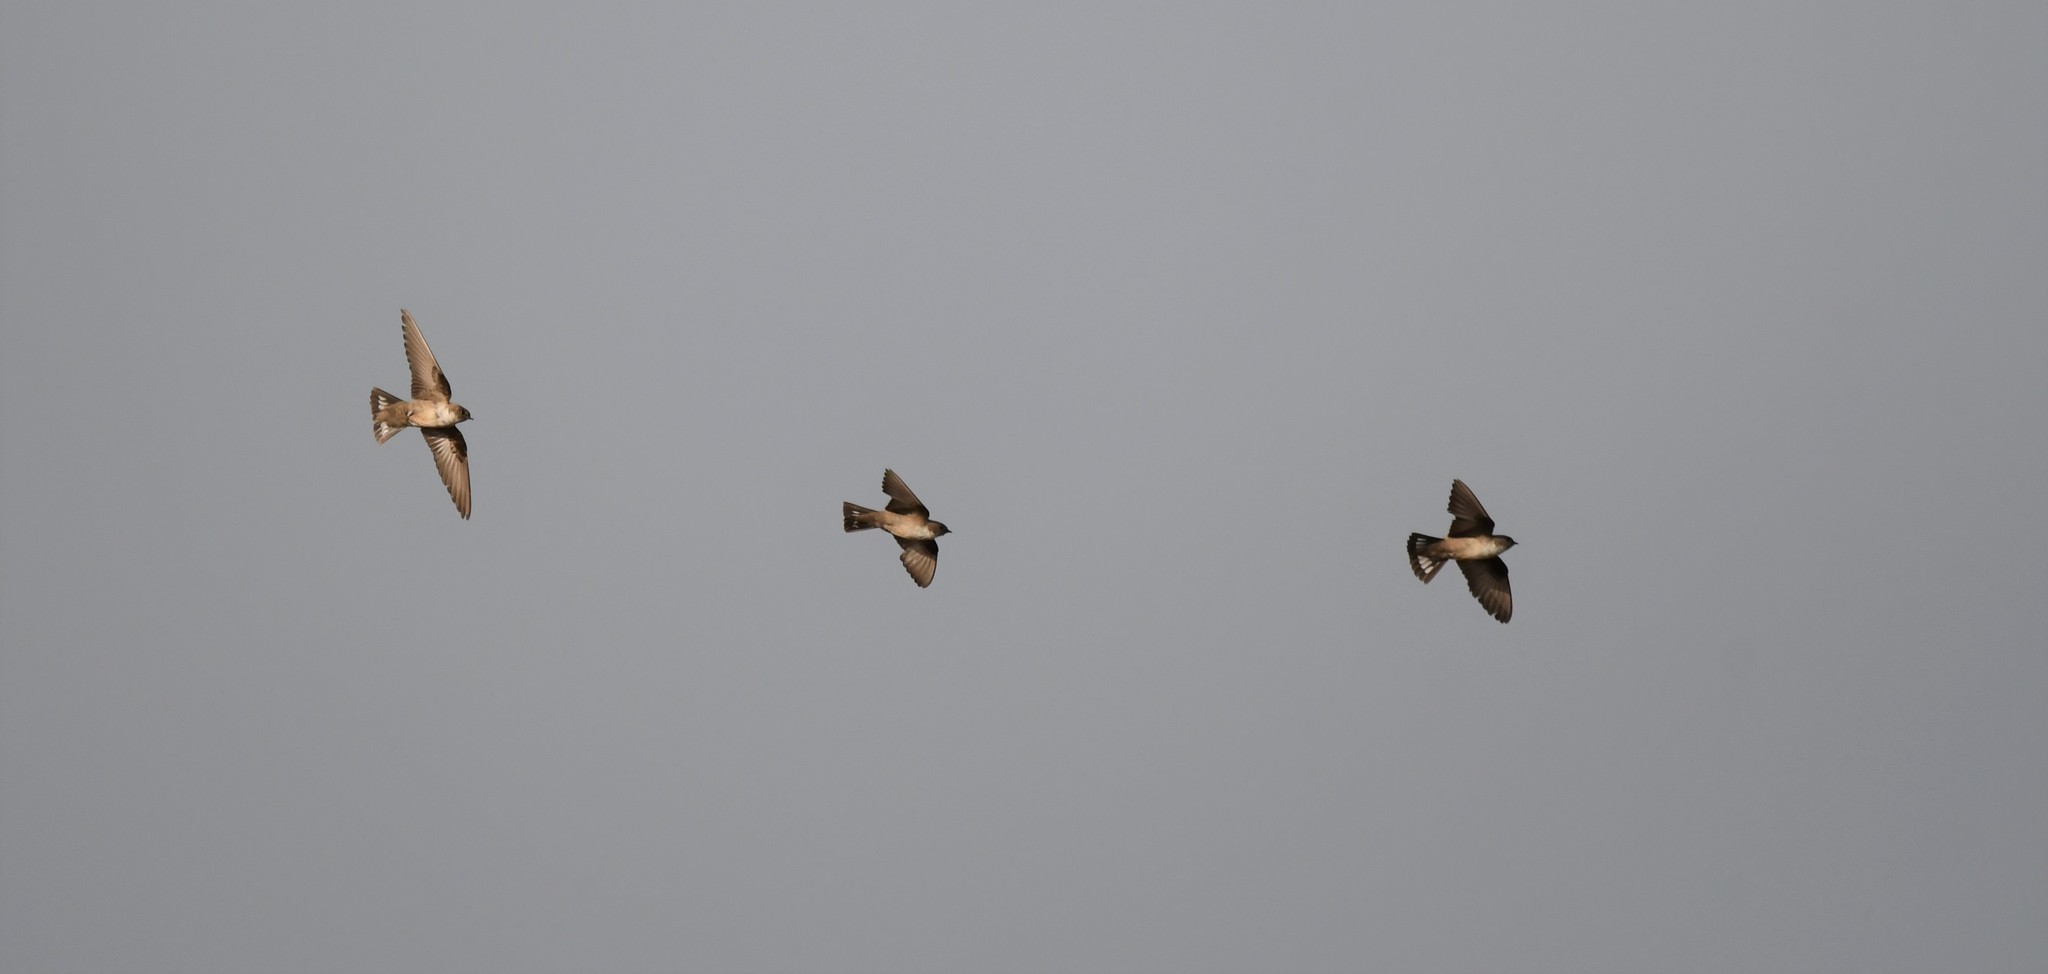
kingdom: Animalia
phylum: Chordata
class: Aves
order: Passeriformes
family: Hirundinidae
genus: Ptyonoprogne
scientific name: Ptyonoprogne rupestris
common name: Eurasian crag martin
